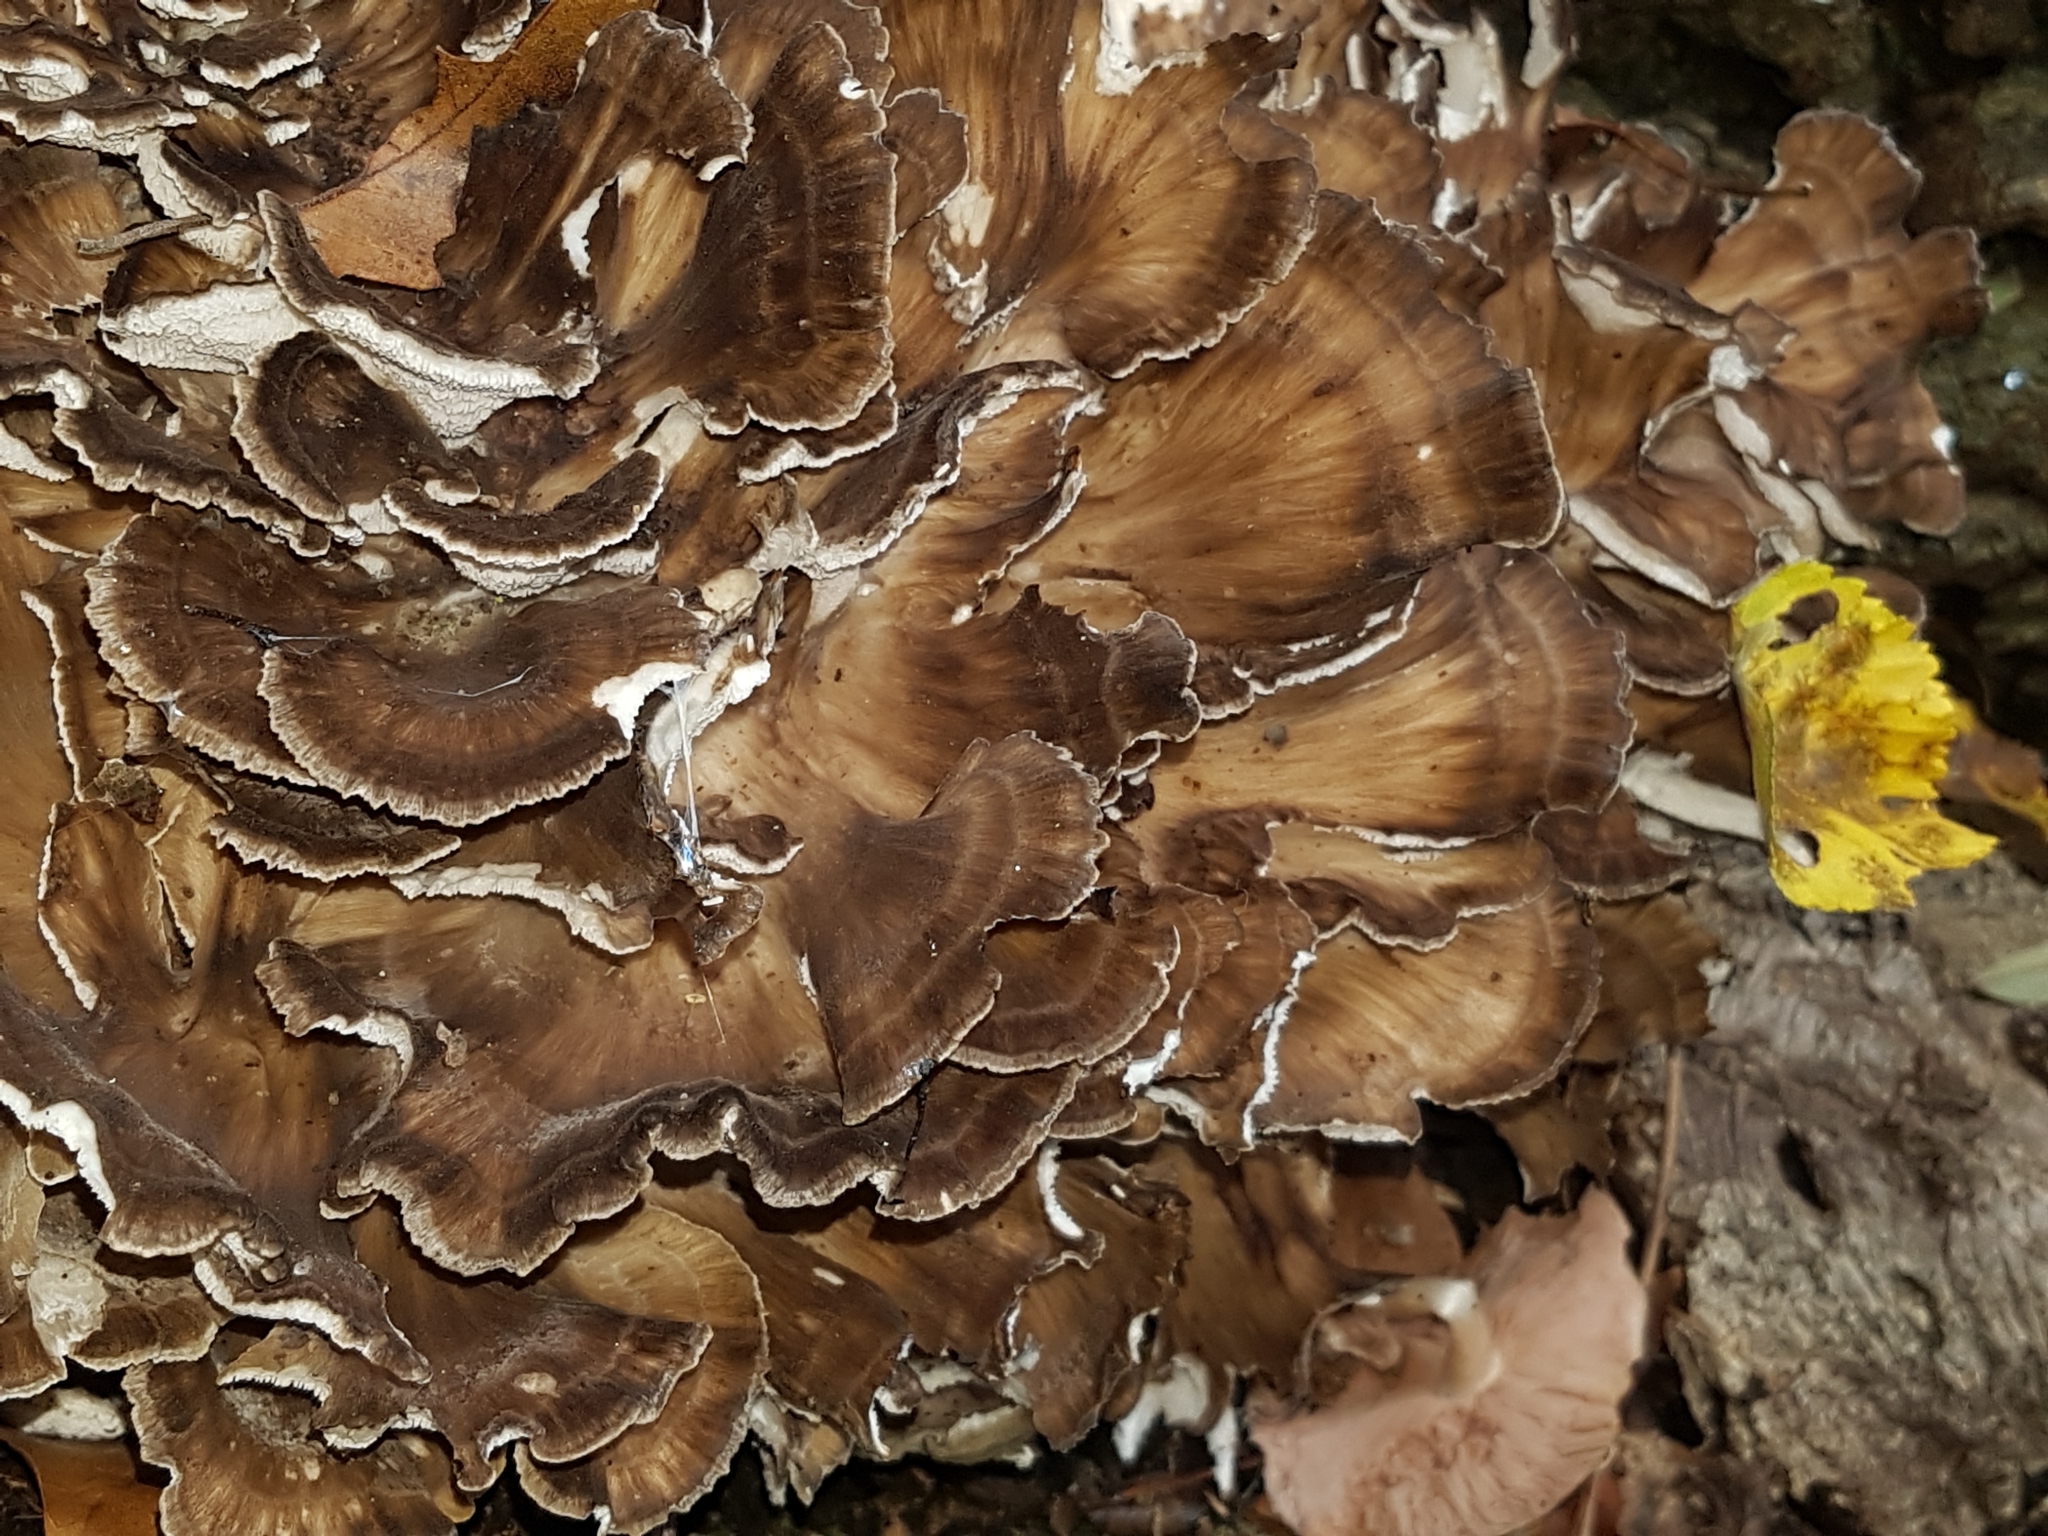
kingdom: Fungi
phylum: Basidiomycota
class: Agaricomycetes
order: Polyporales
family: Grifolaceae
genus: Grifola
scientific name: Grifola frondosa
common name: Hen of the woods
